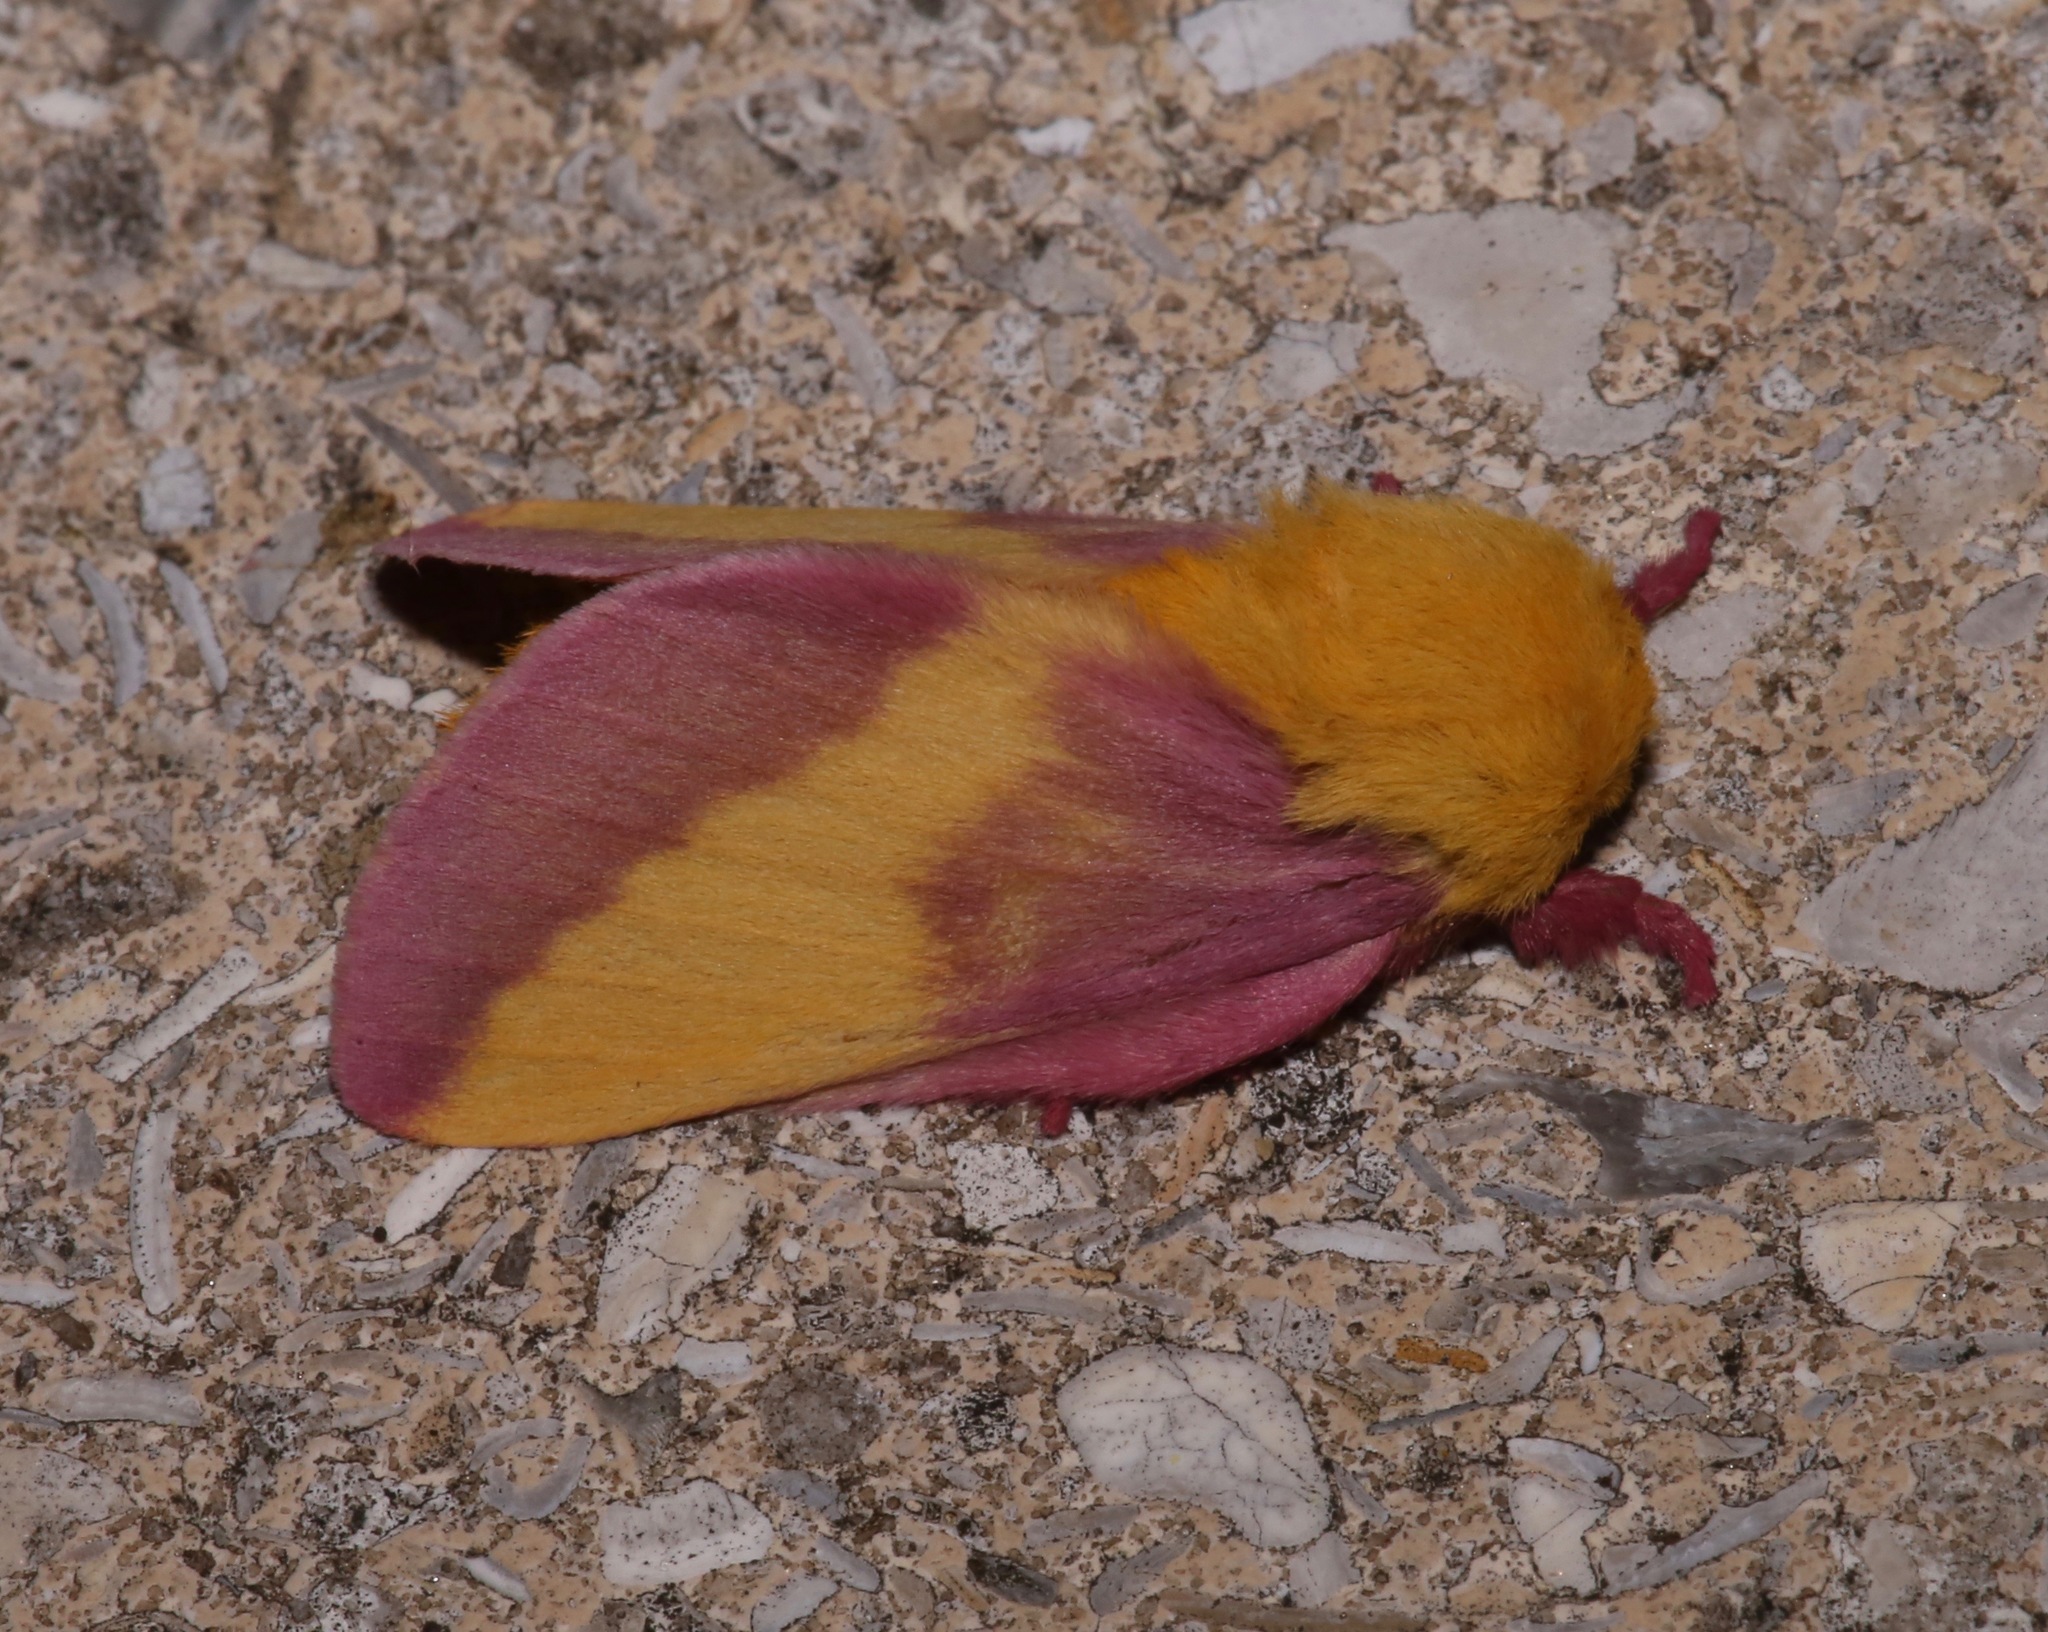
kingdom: Animalia
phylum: Arthropoda
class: Insecta
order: Lepidoptera
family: Saturniidae
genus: Dryocampa
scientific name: Dryocampa rubicunda
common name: Rosy maple moth
